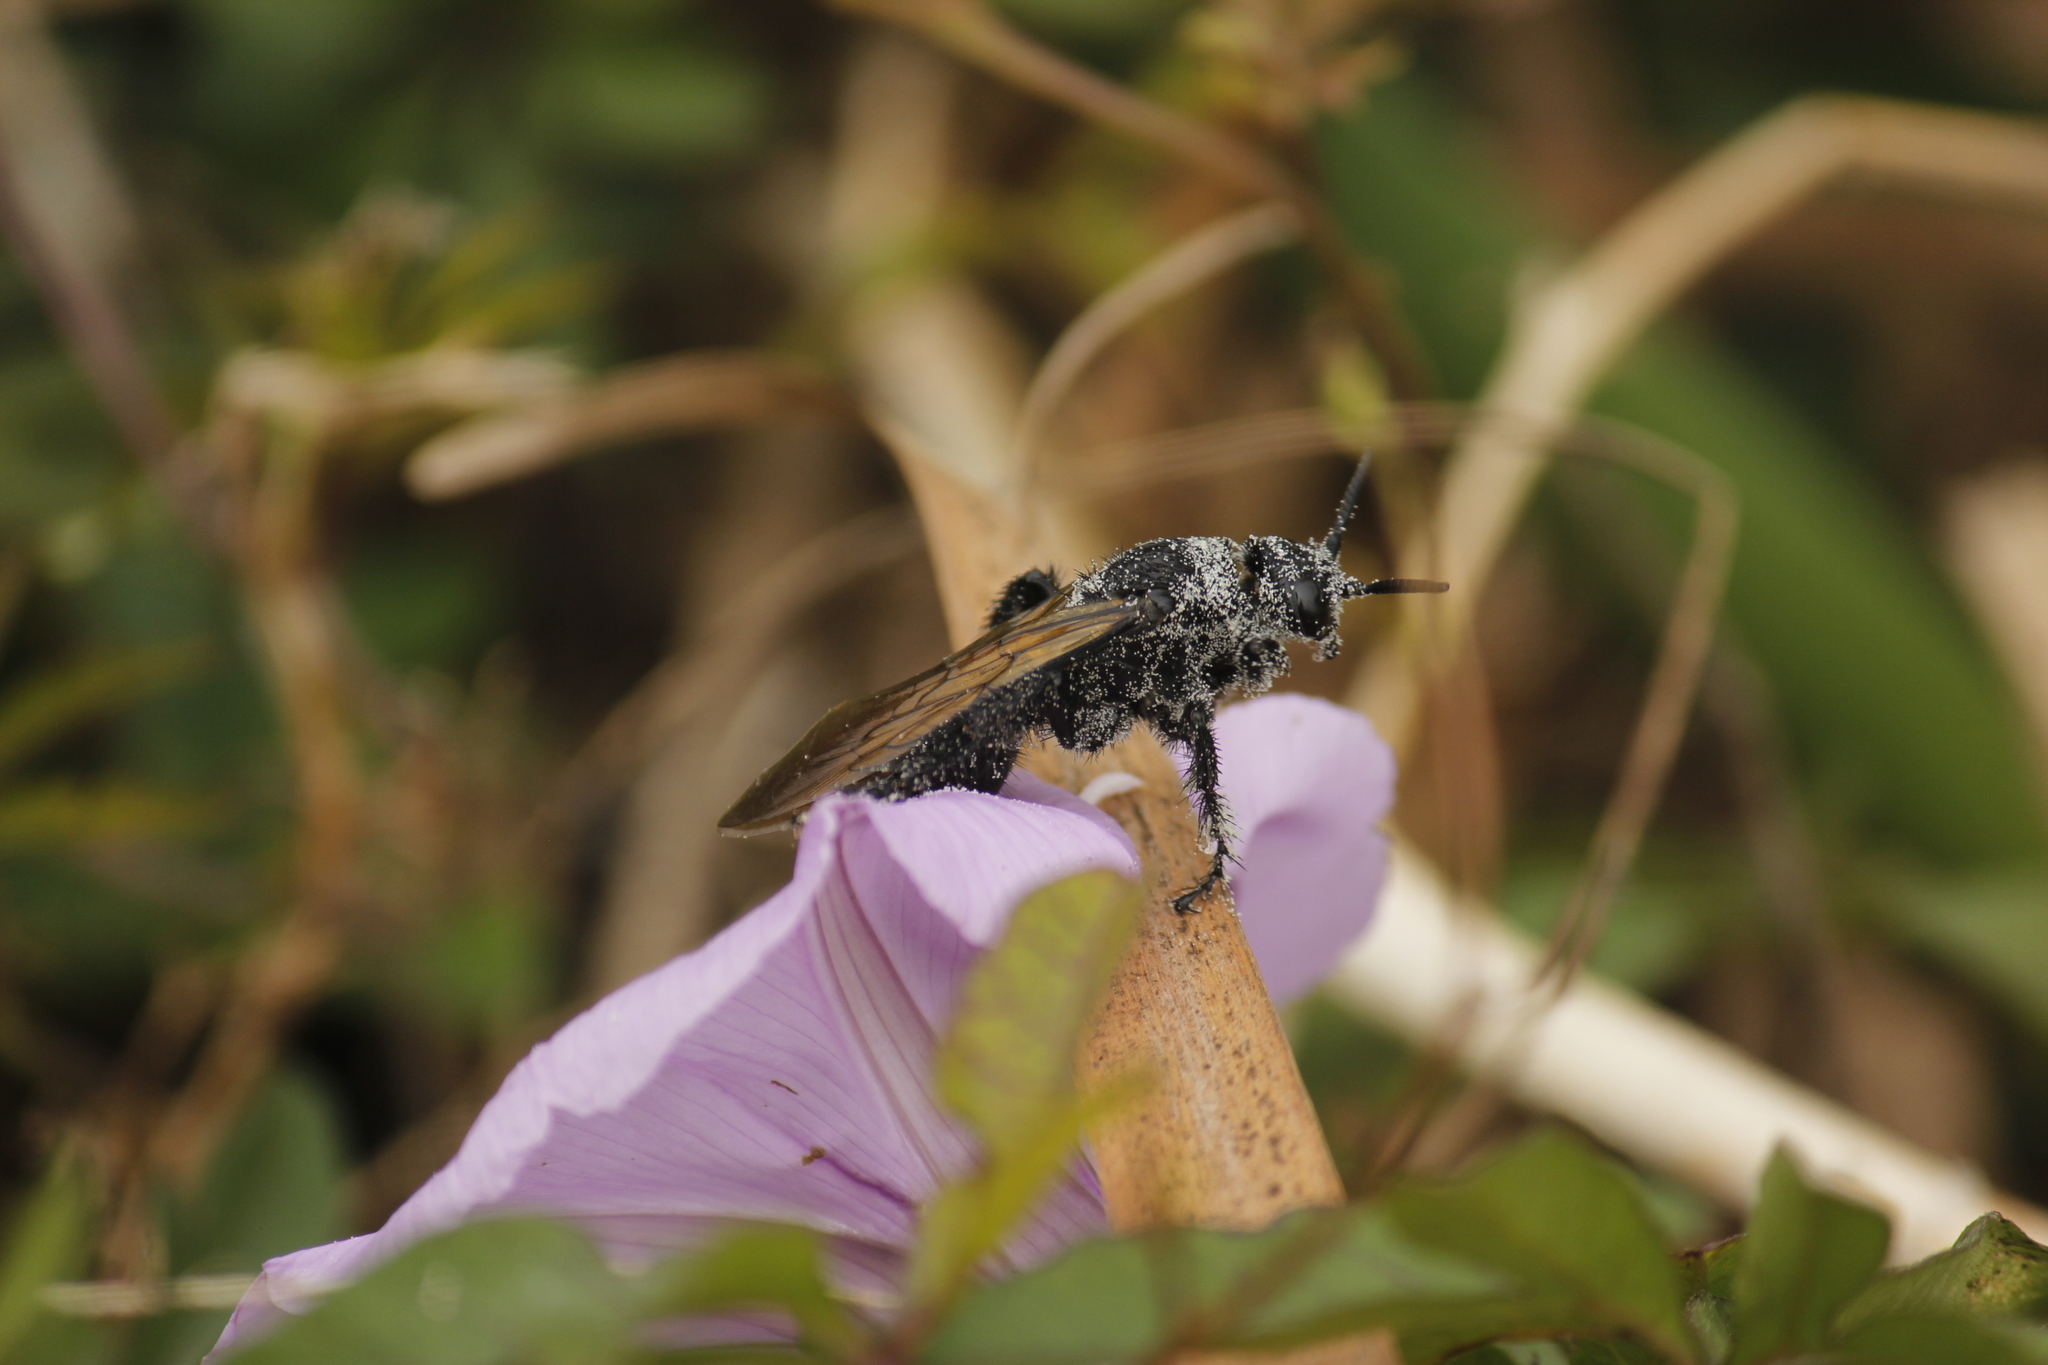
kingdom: Animalia
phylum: Arthropoda
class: Insecta
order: Hymenoptera
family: Scoliidae
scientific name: Scoliidae
